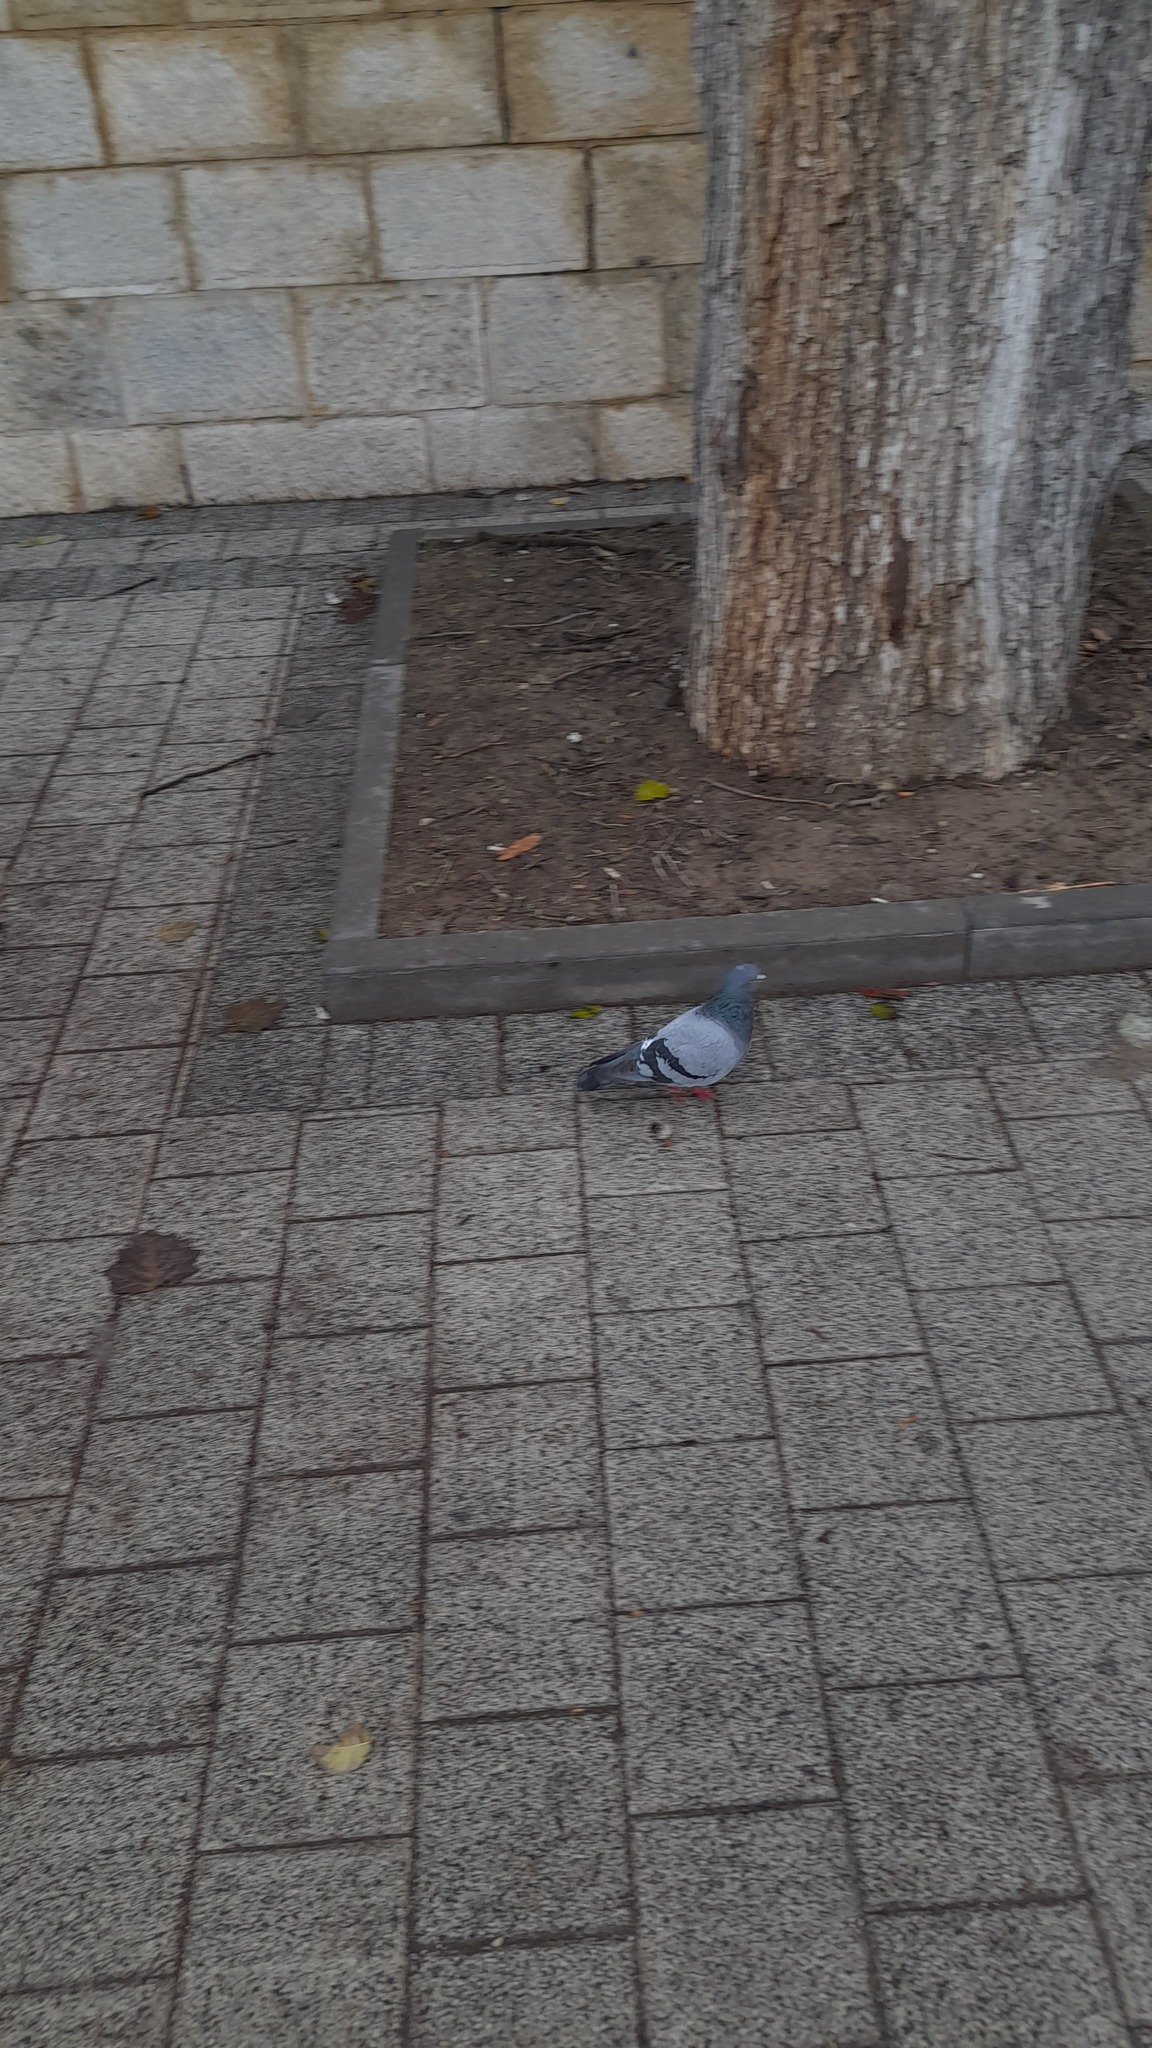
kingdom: Animalia
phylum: Chordata
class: Aves
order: Columbiformes
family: Columbidae
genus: Columba
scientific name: Columba livia
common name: Rock pigeon
